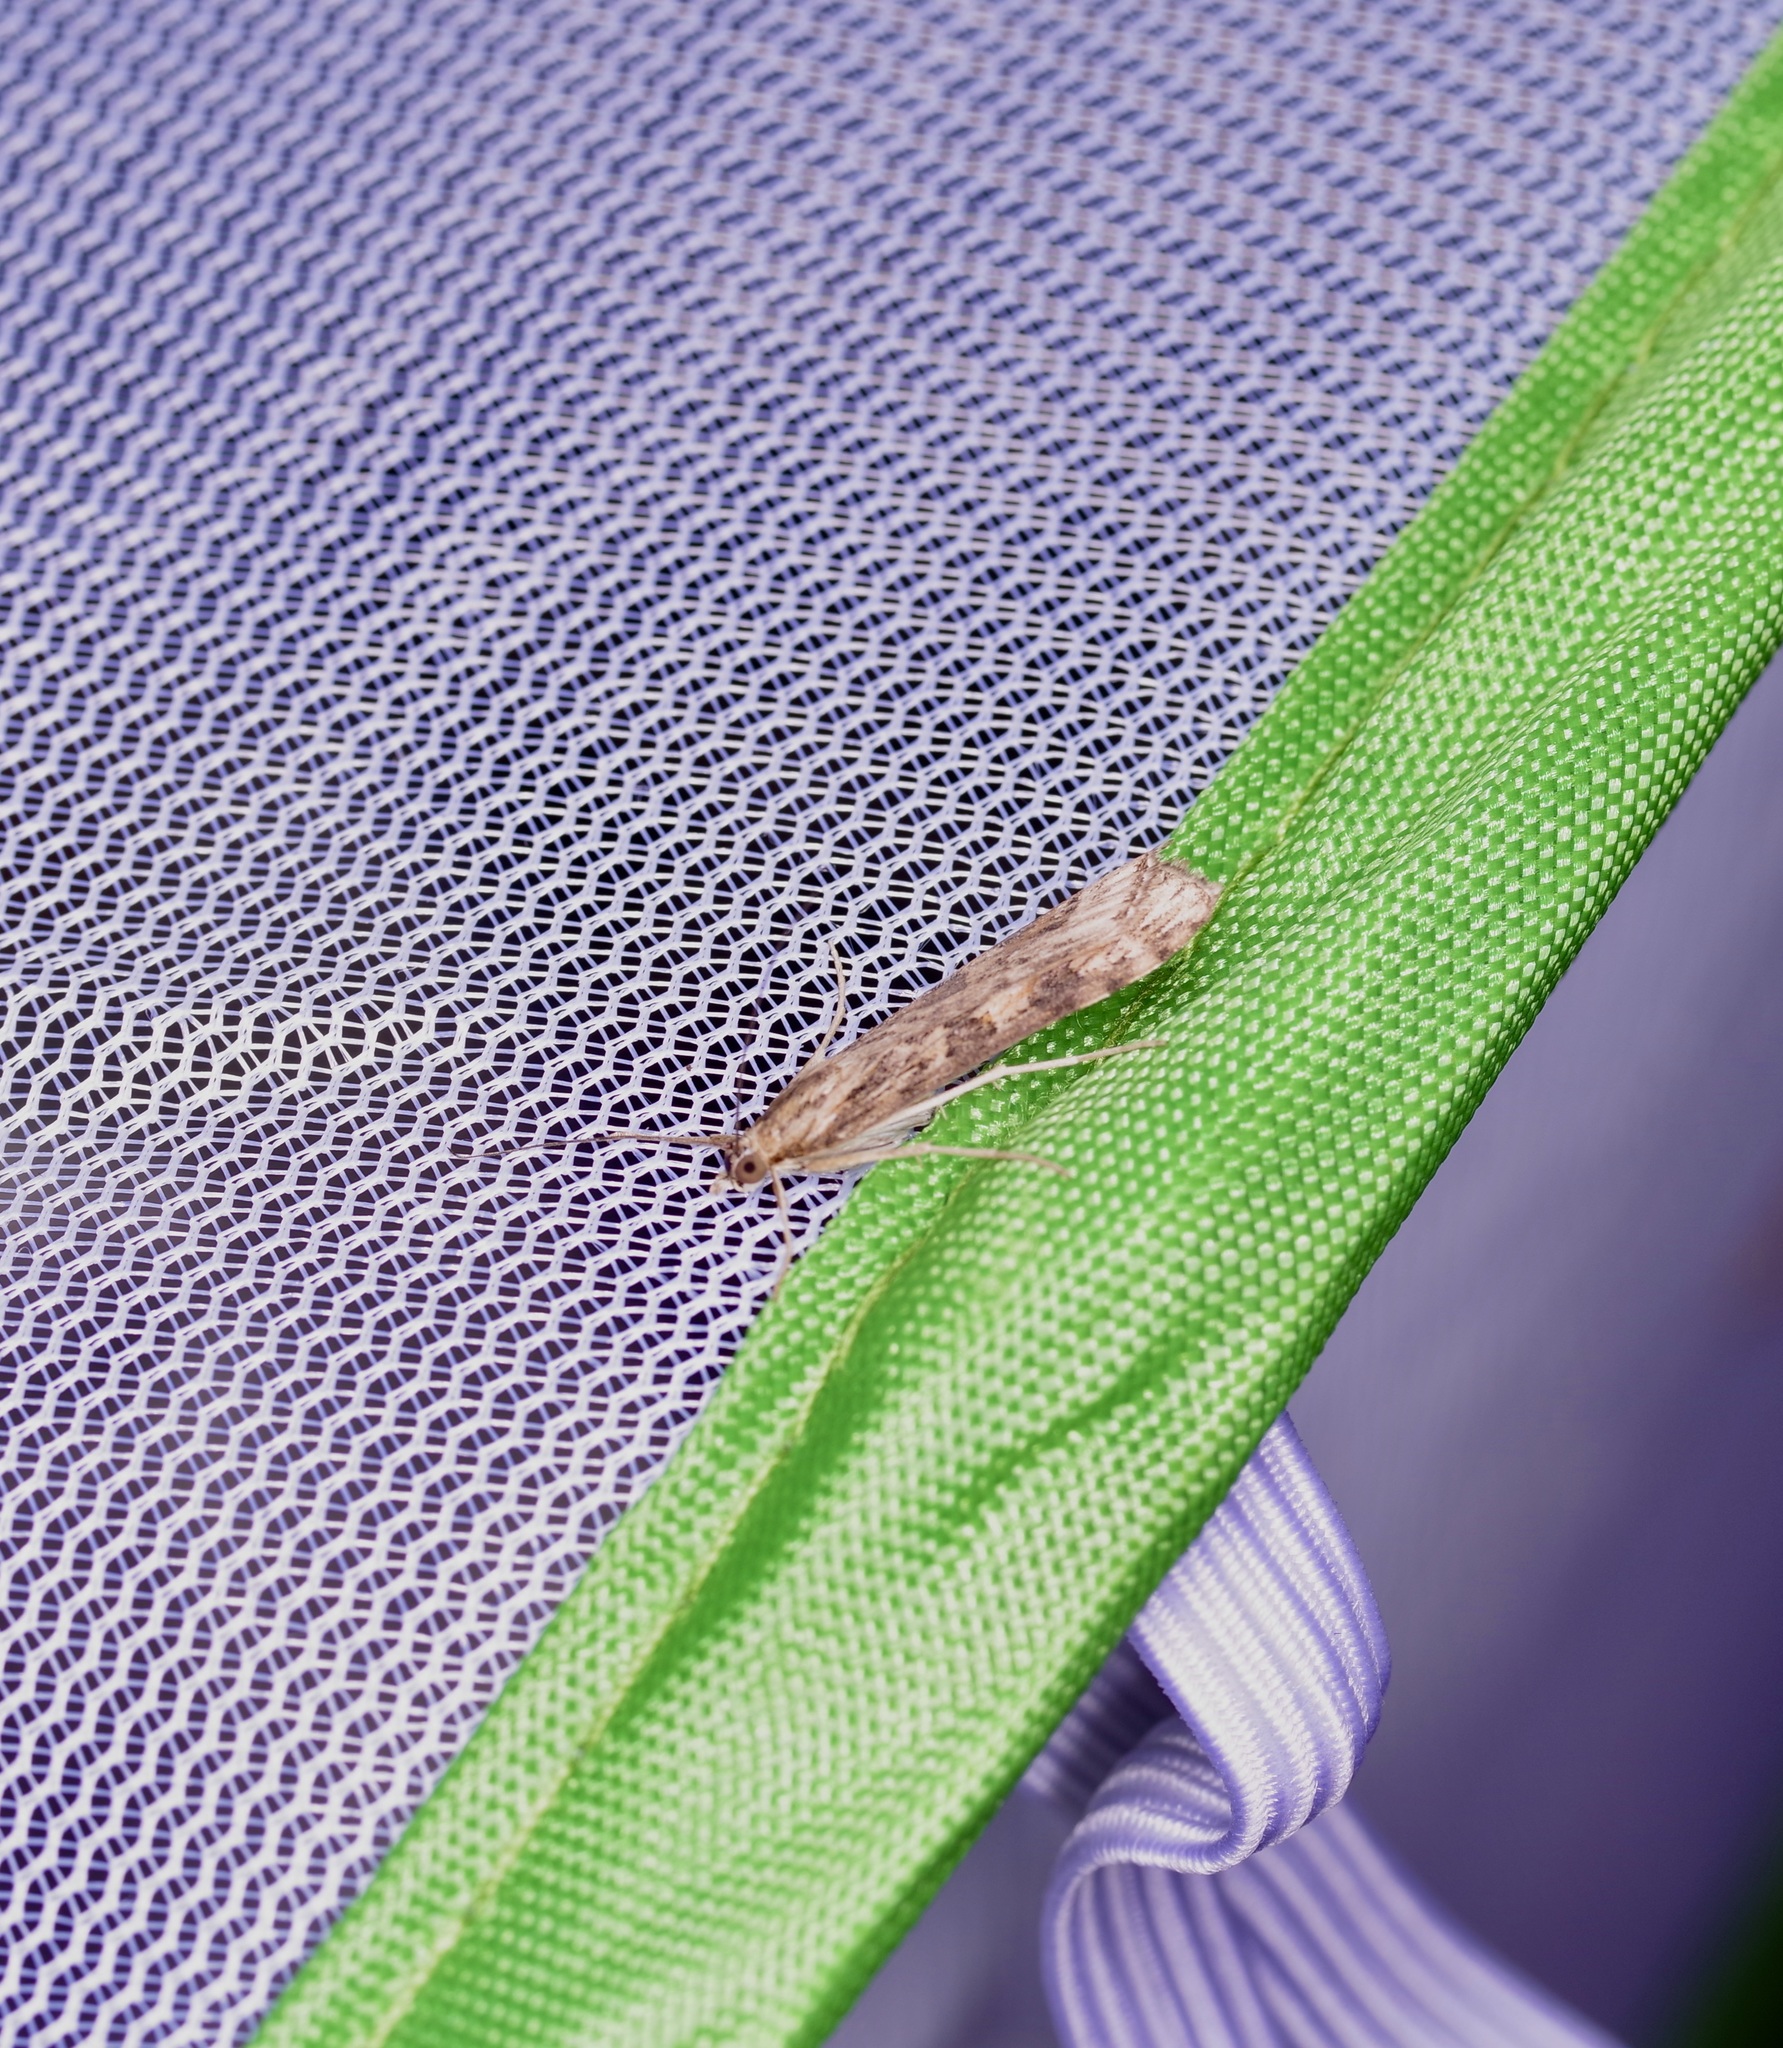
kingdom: Animalia
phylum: Arthropoda
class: Insecta
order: Lepidoptera
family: Crambidae
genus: Nomophila
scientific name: Nomophila nearctica
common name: American rush veneer
